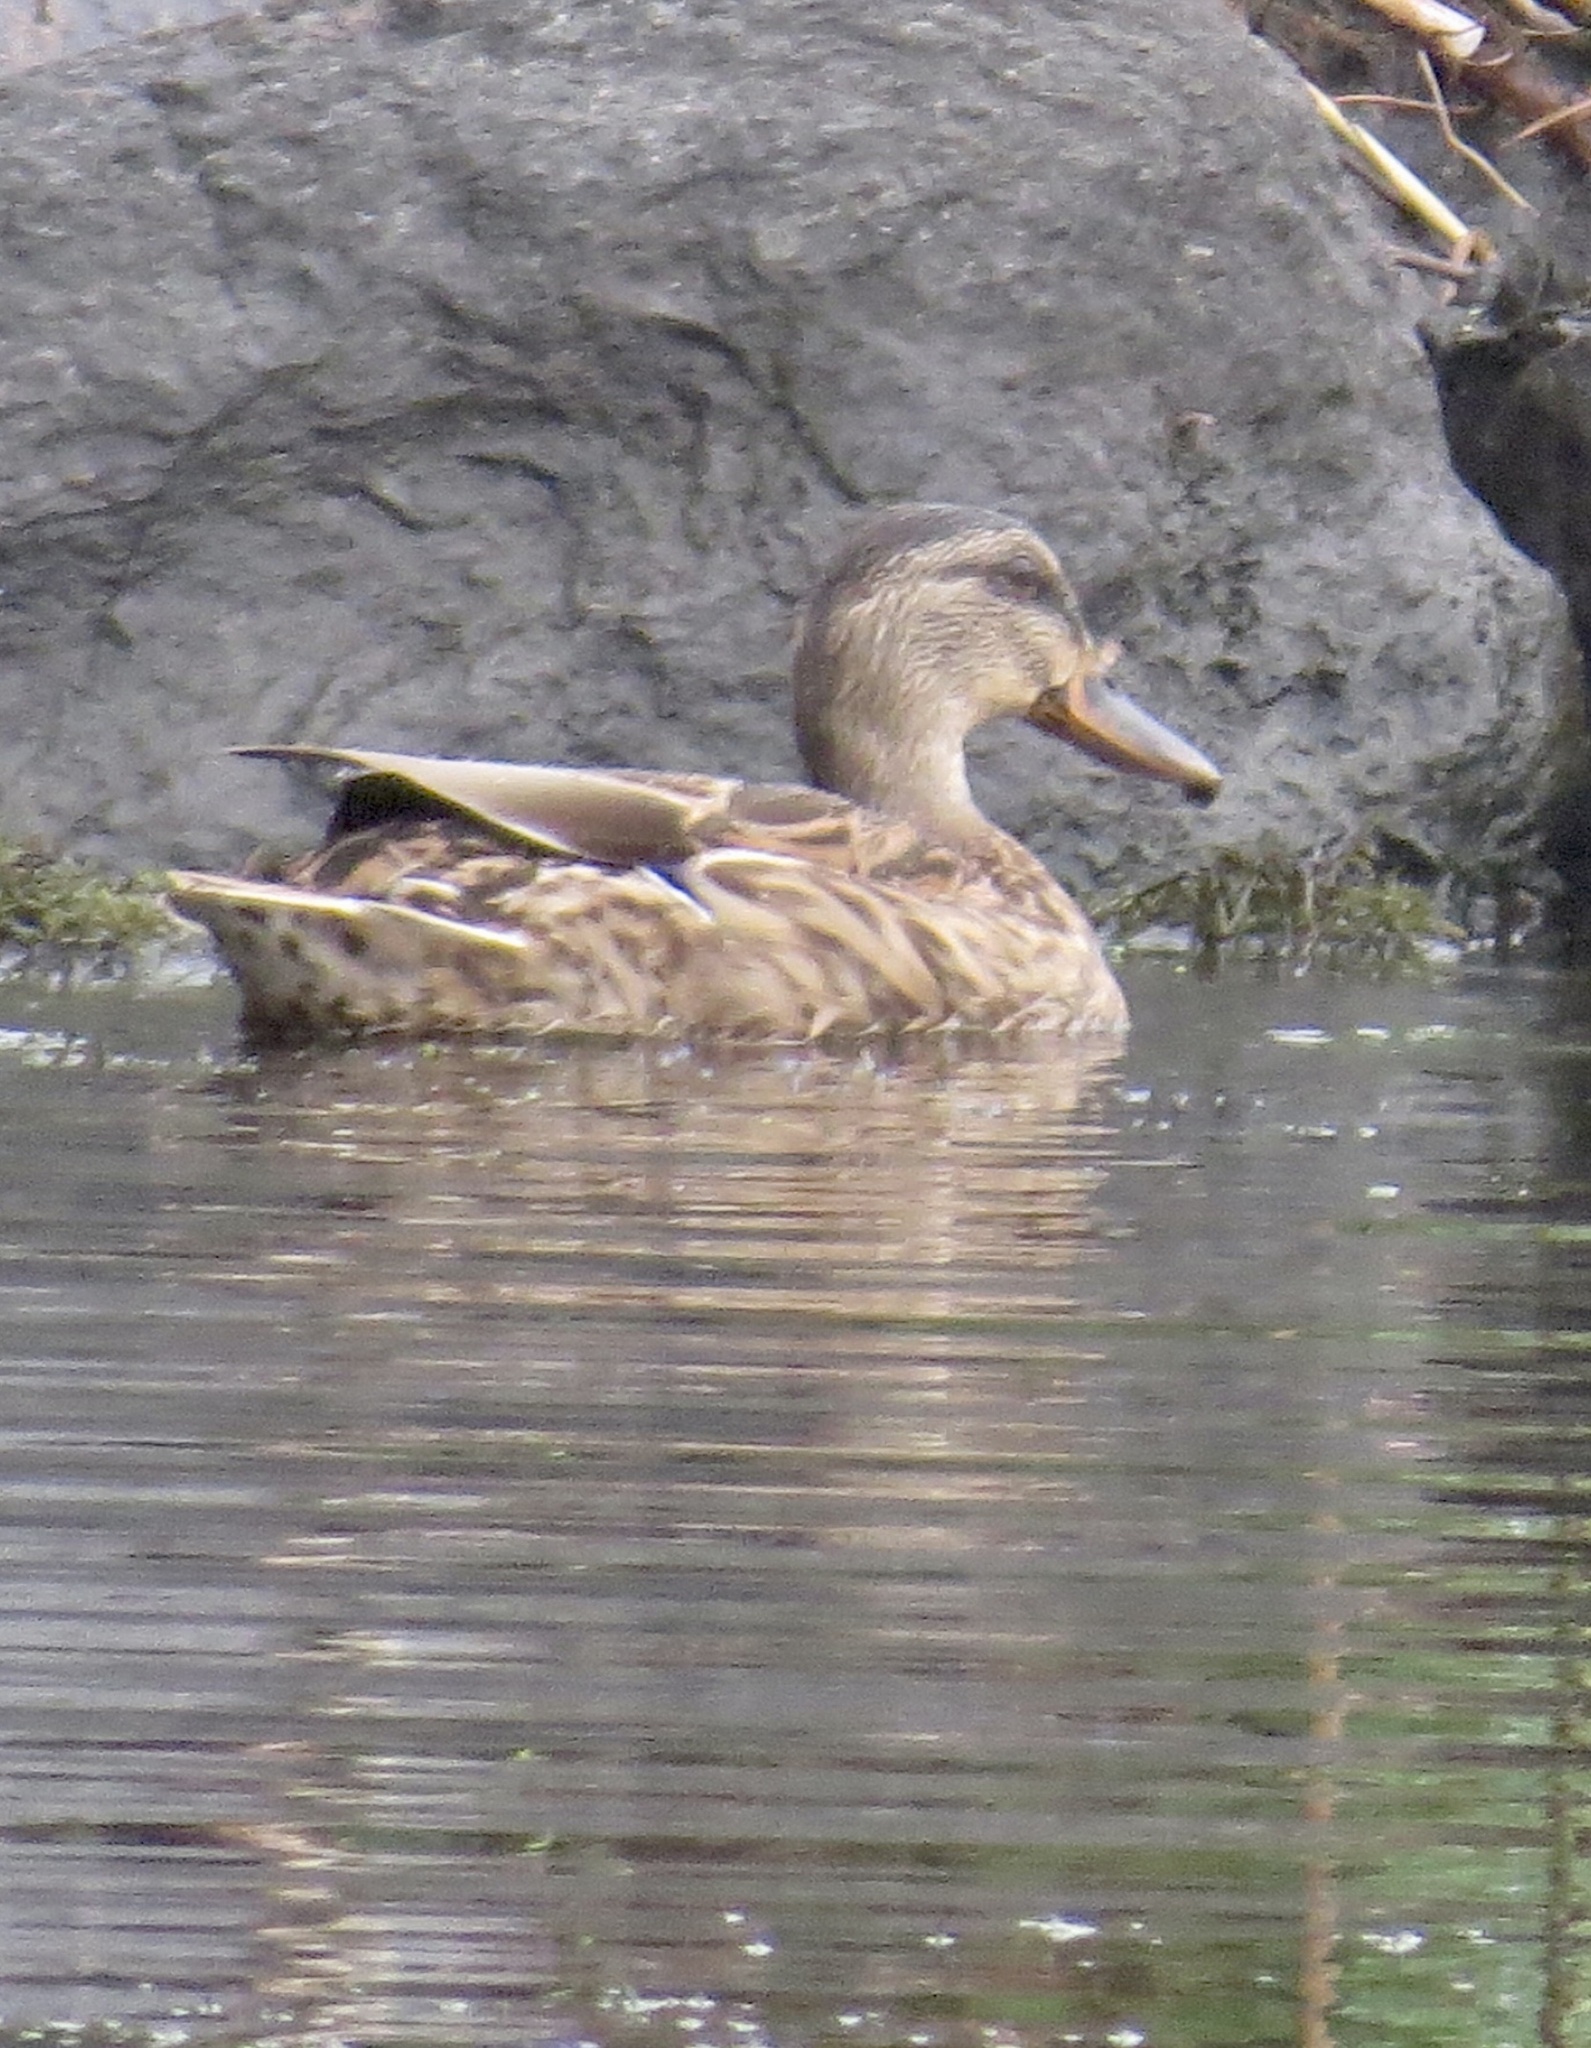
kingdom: Animalia
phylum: Chordata
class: Aves
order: Anseriformes
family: Anatidae
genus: Anas
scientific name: Anas platyrhynchos
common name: Mallard
